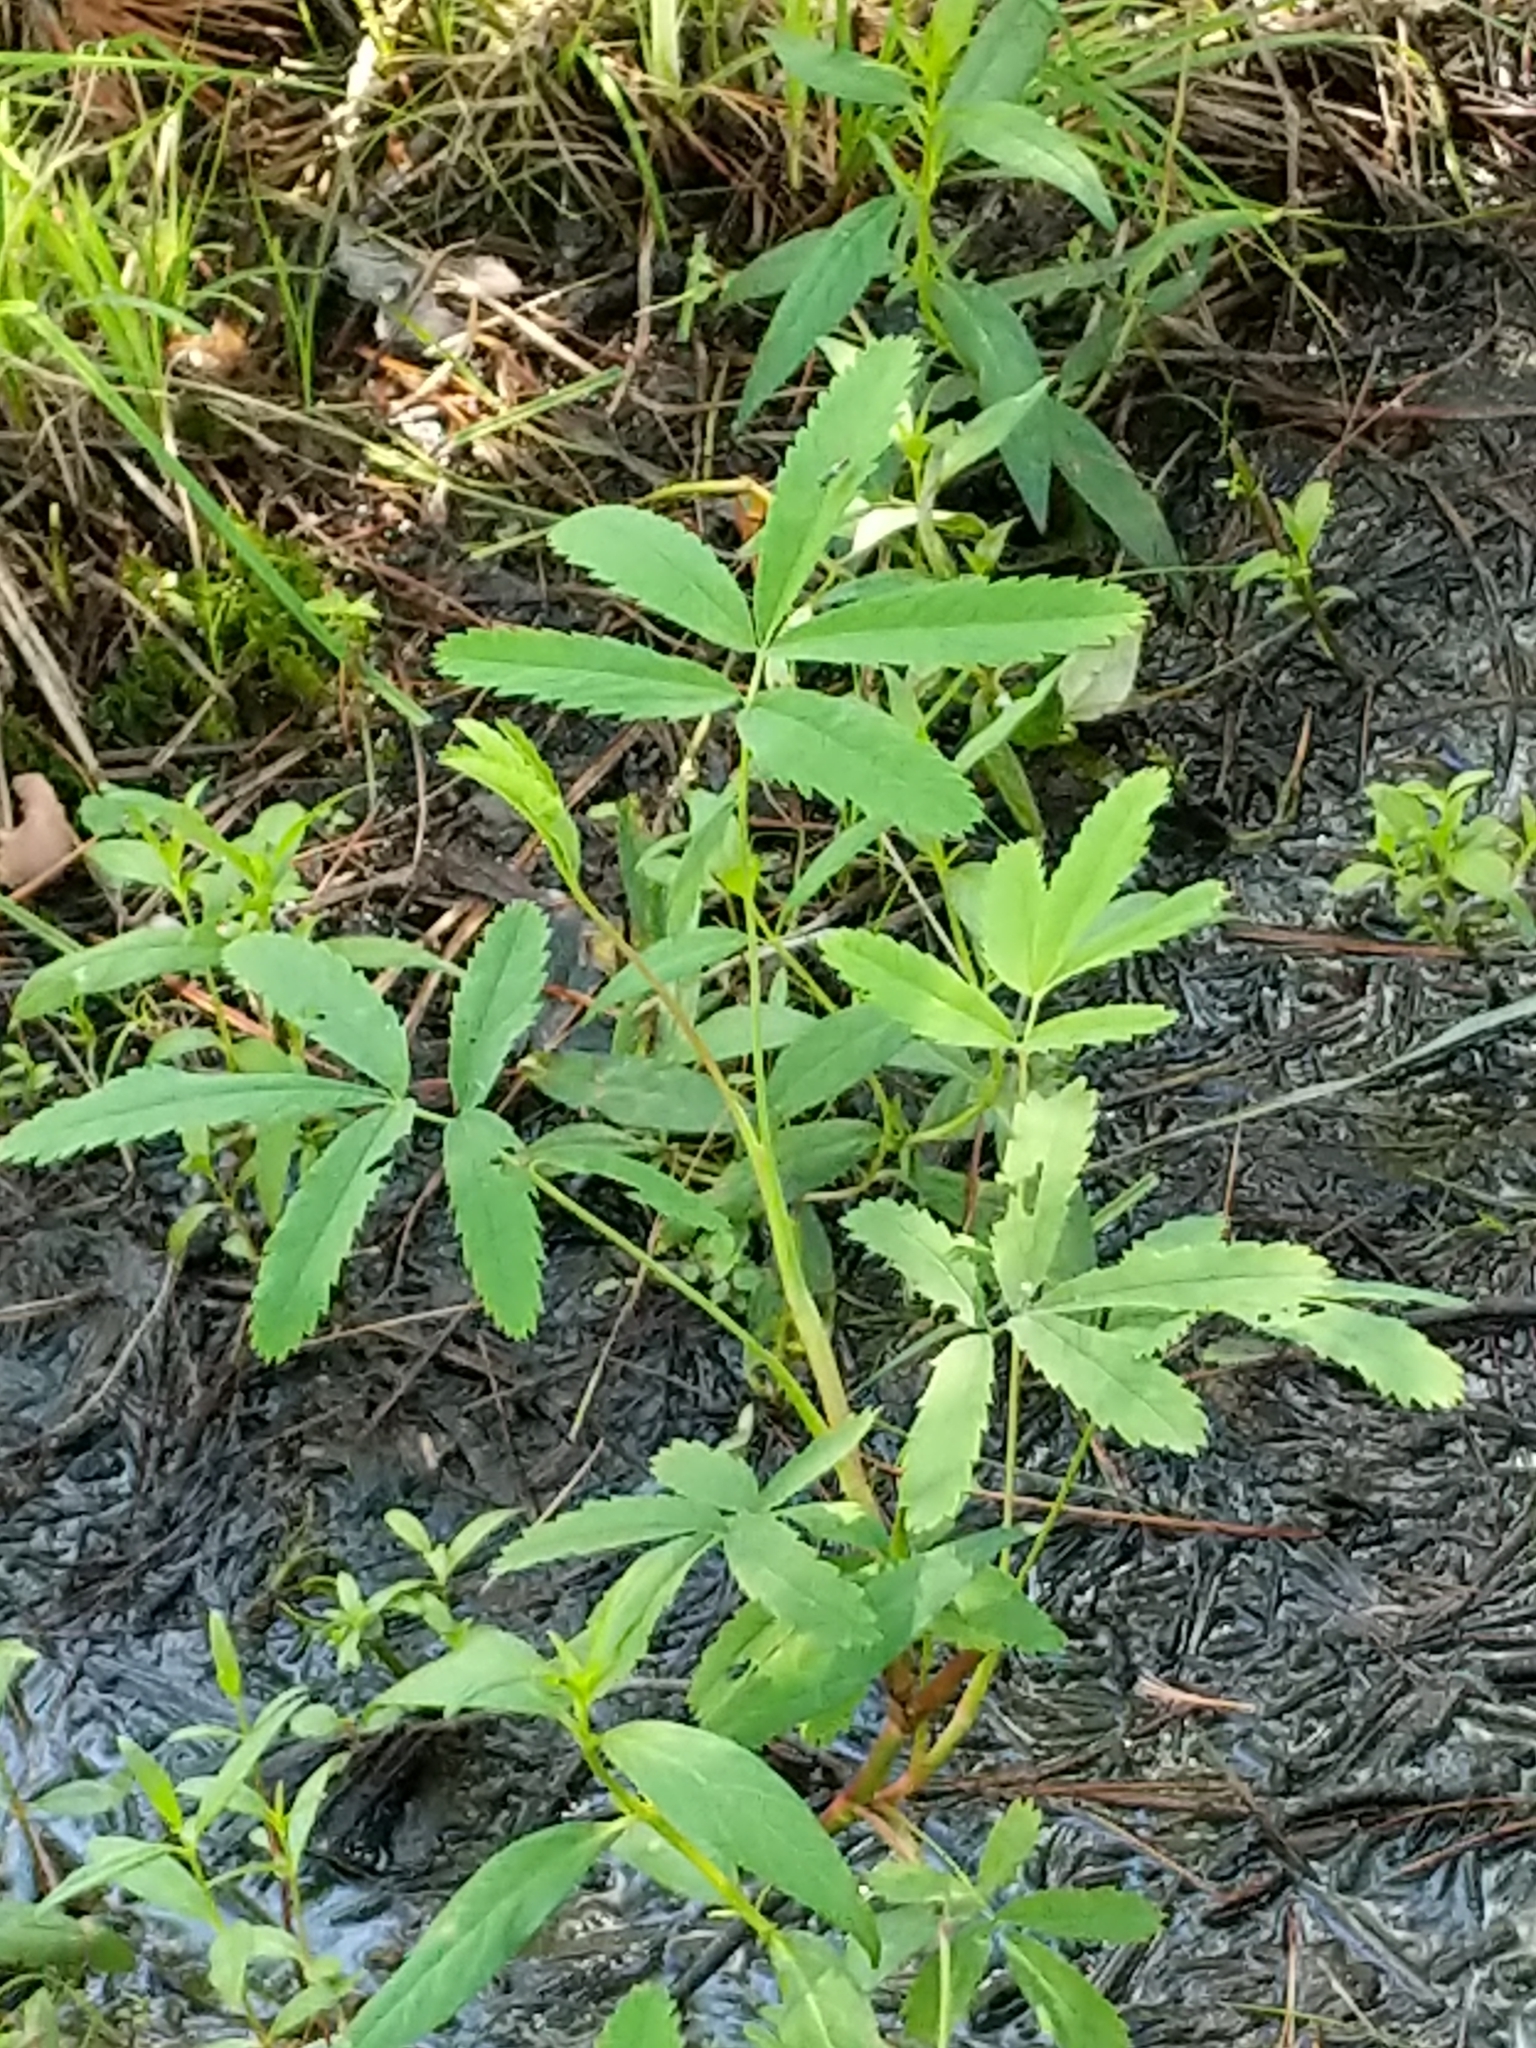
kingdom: Plantae
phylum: Tracheophyta
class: Magnoliopsida
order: Rosales
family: Rosaceae
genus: Comarum
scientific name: Comarum palustre
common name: Marsh cinquefoil
